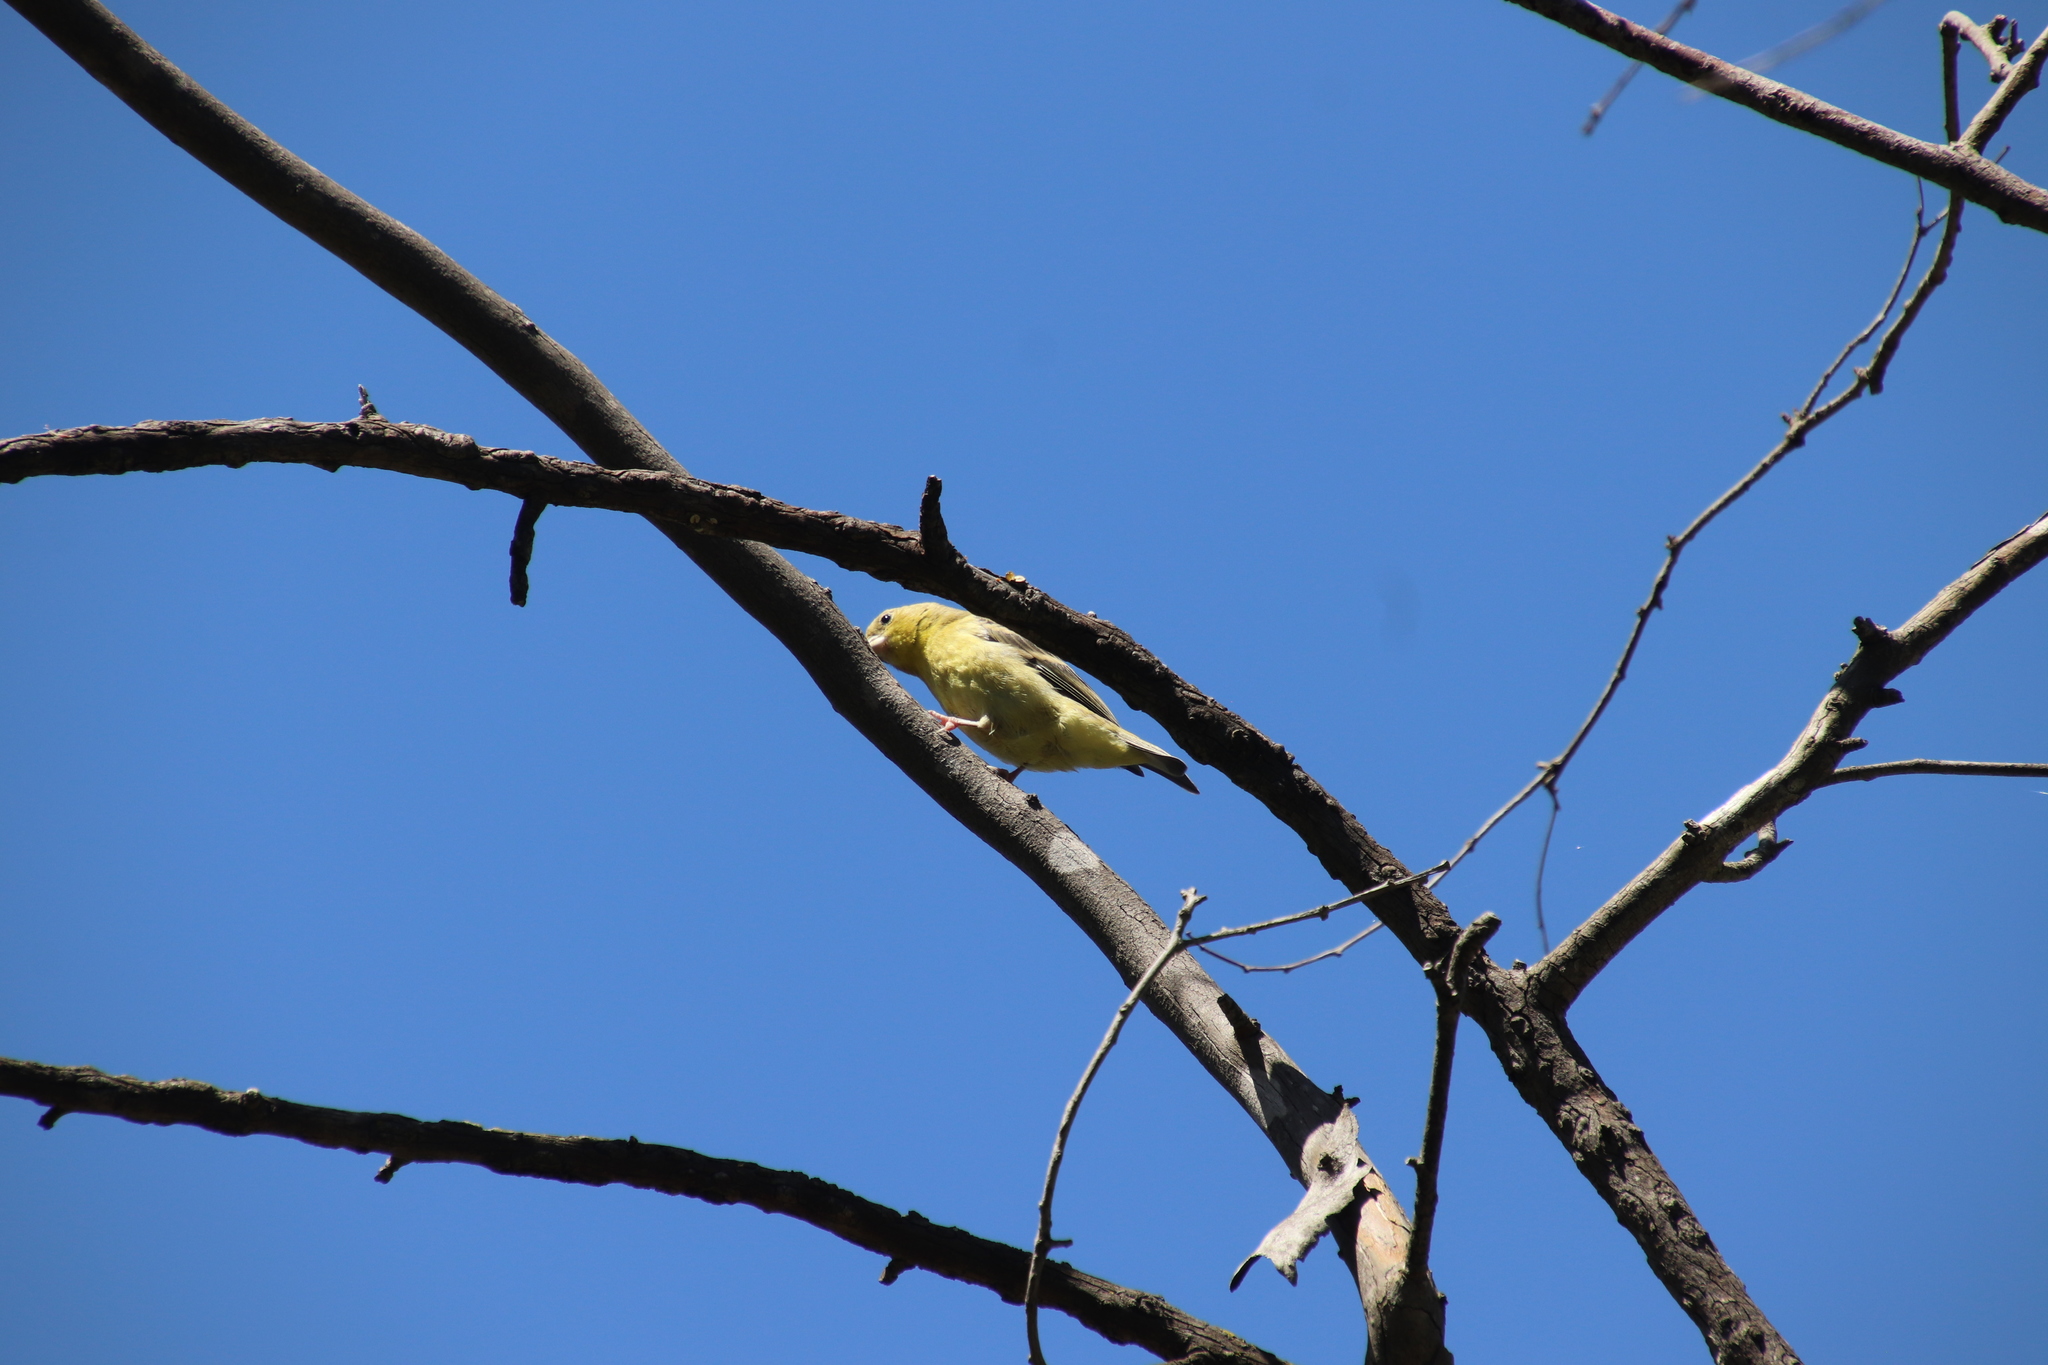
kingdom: Animalia
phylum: Chordata
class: Aves
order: Passeriformes
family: Fringillidae
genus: Spinus
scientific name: Spinus psaltria
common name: Lesser goldfinch
